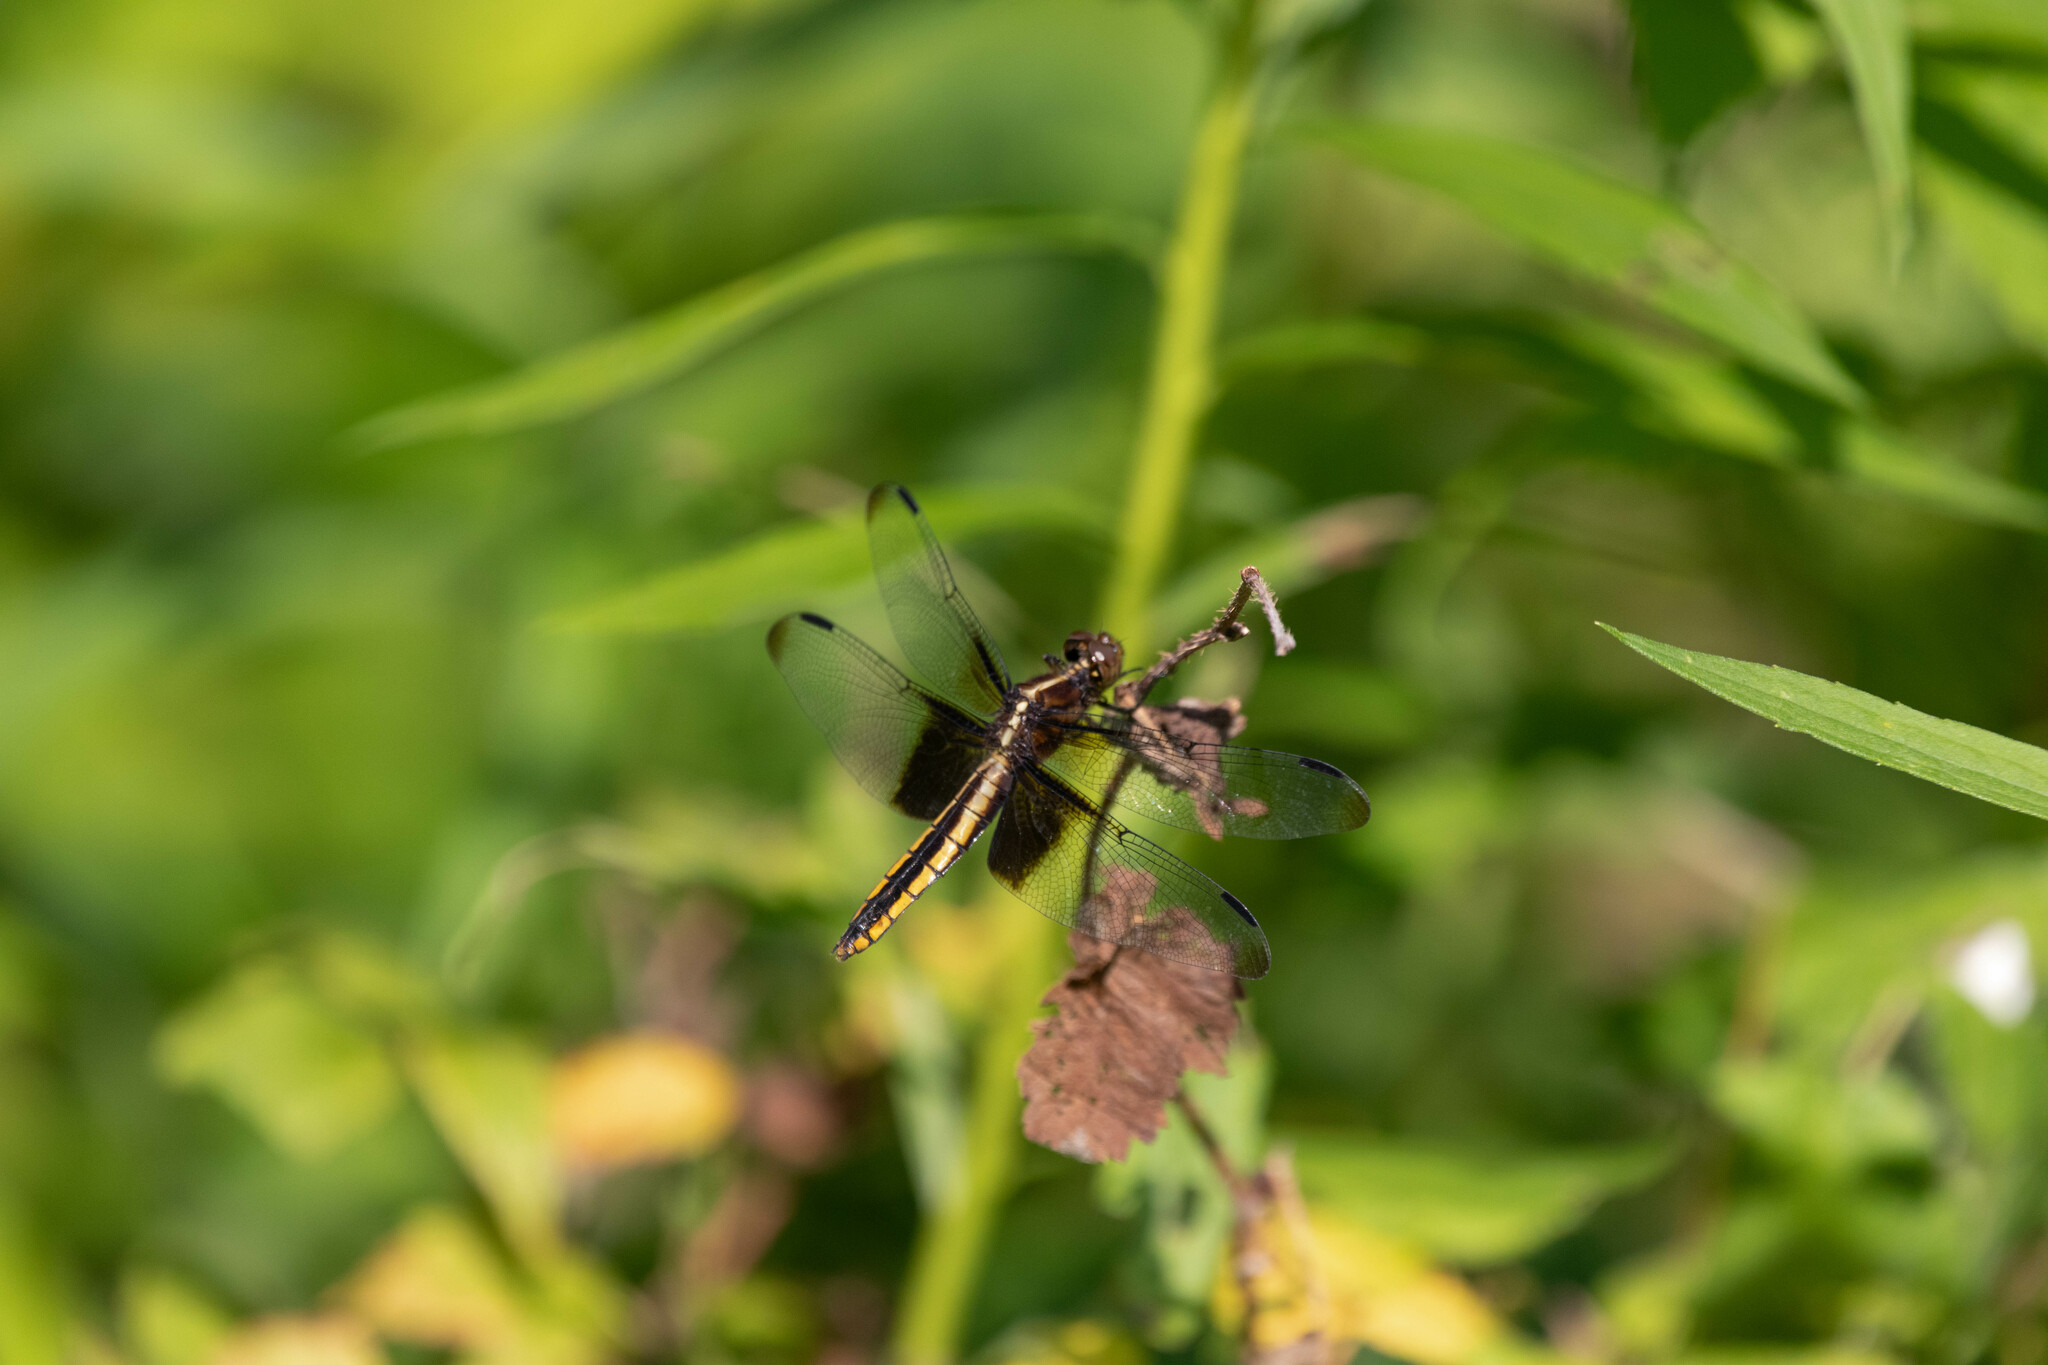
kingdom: Animalia
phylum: Arthropoda
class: Insecta
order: Odonata
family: Libellulidae
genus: Libellula
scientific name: Libellula luctuosa
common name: Widow skimmer
